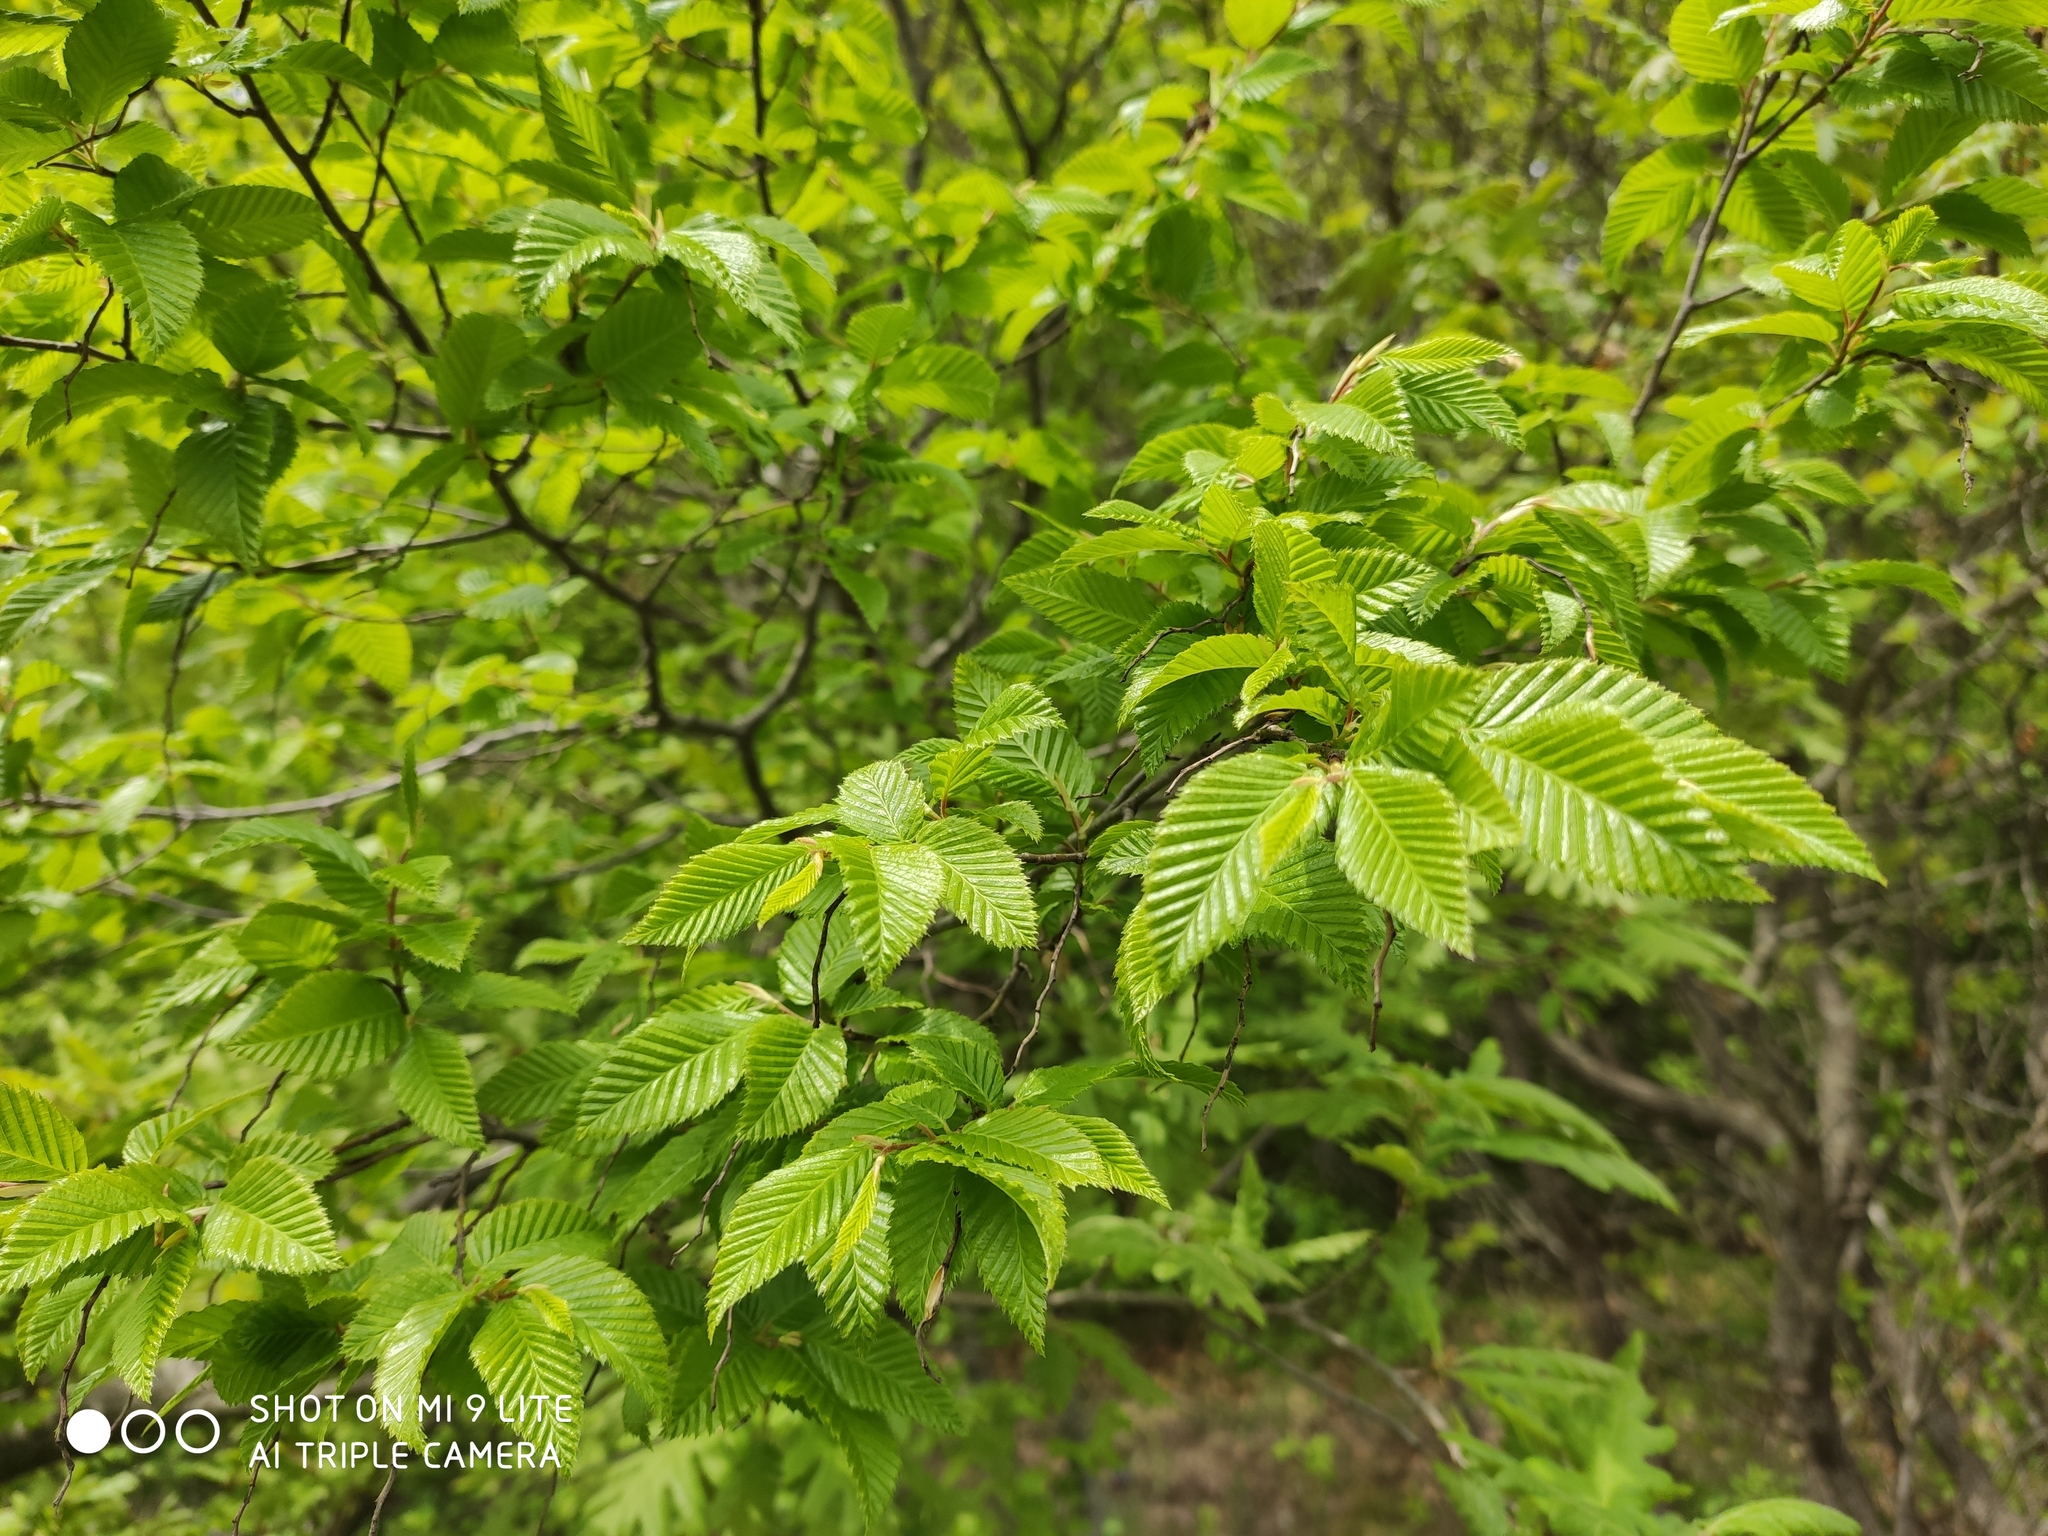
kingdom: Plantae
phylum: Tracheophyta
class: Magnoliopsida
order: Fagales
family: Betulaceae
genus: Carpinus
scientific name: Carpinus orientalis
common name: Eastern hornbeam
